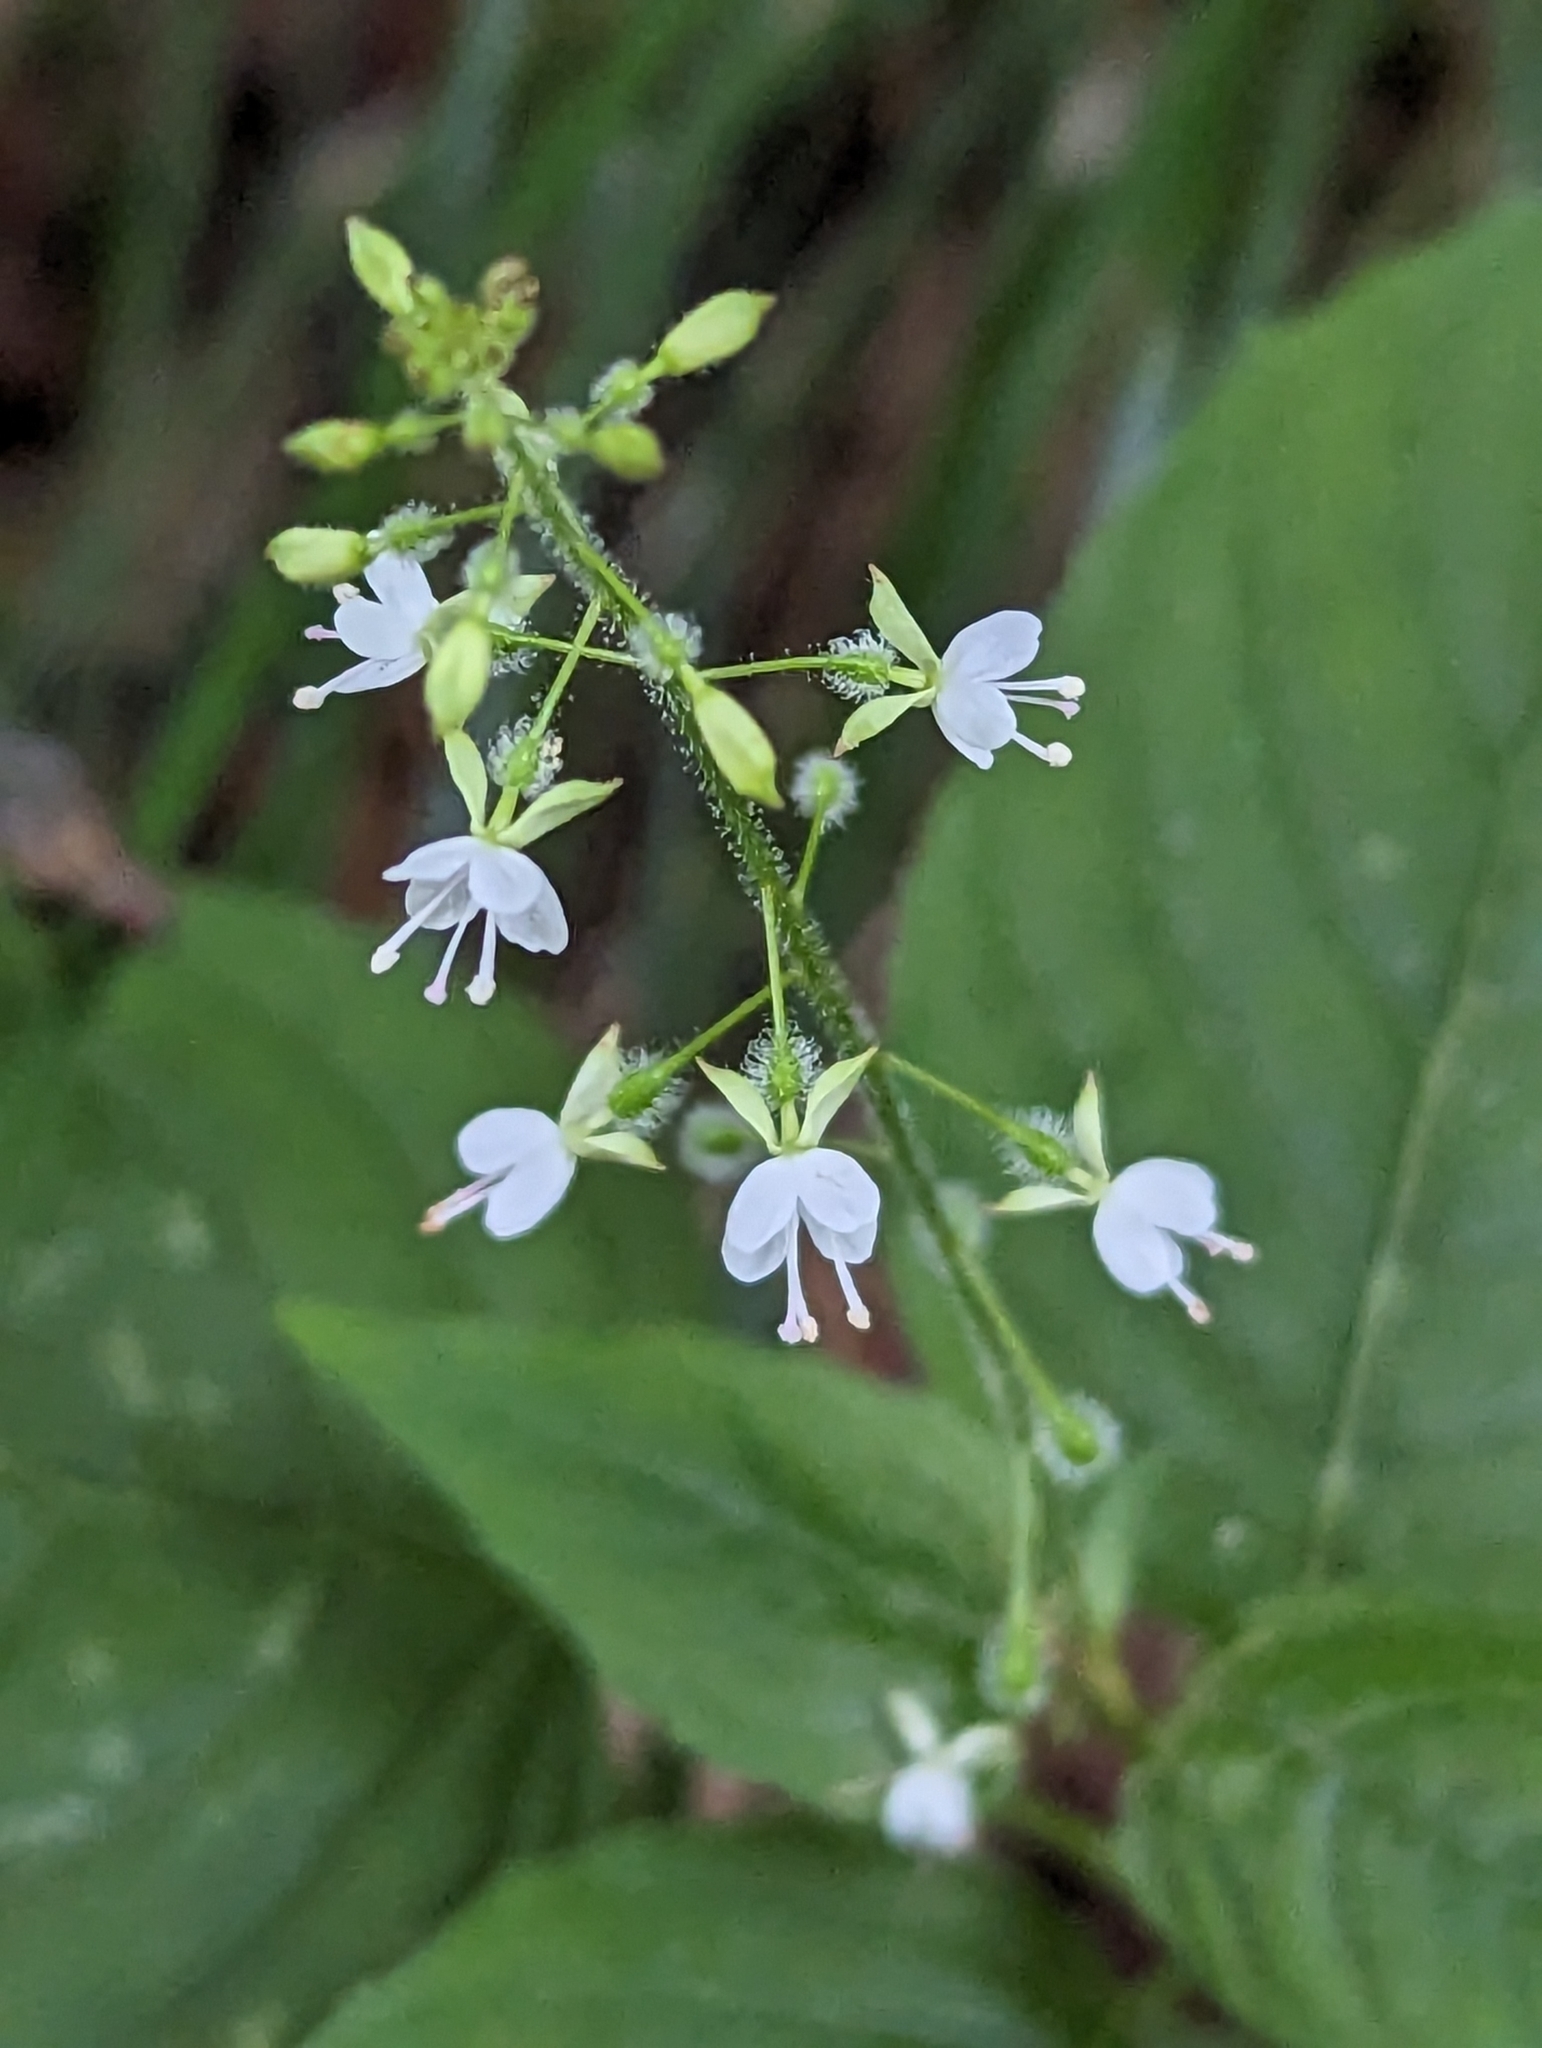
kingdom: Plantae
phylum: Tracheophyta
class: Magnoliopsida
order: Myrtales
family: Onagraceae
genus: Circaea
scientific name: Circaea lutetiana
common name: Enchanter's-nightshade
